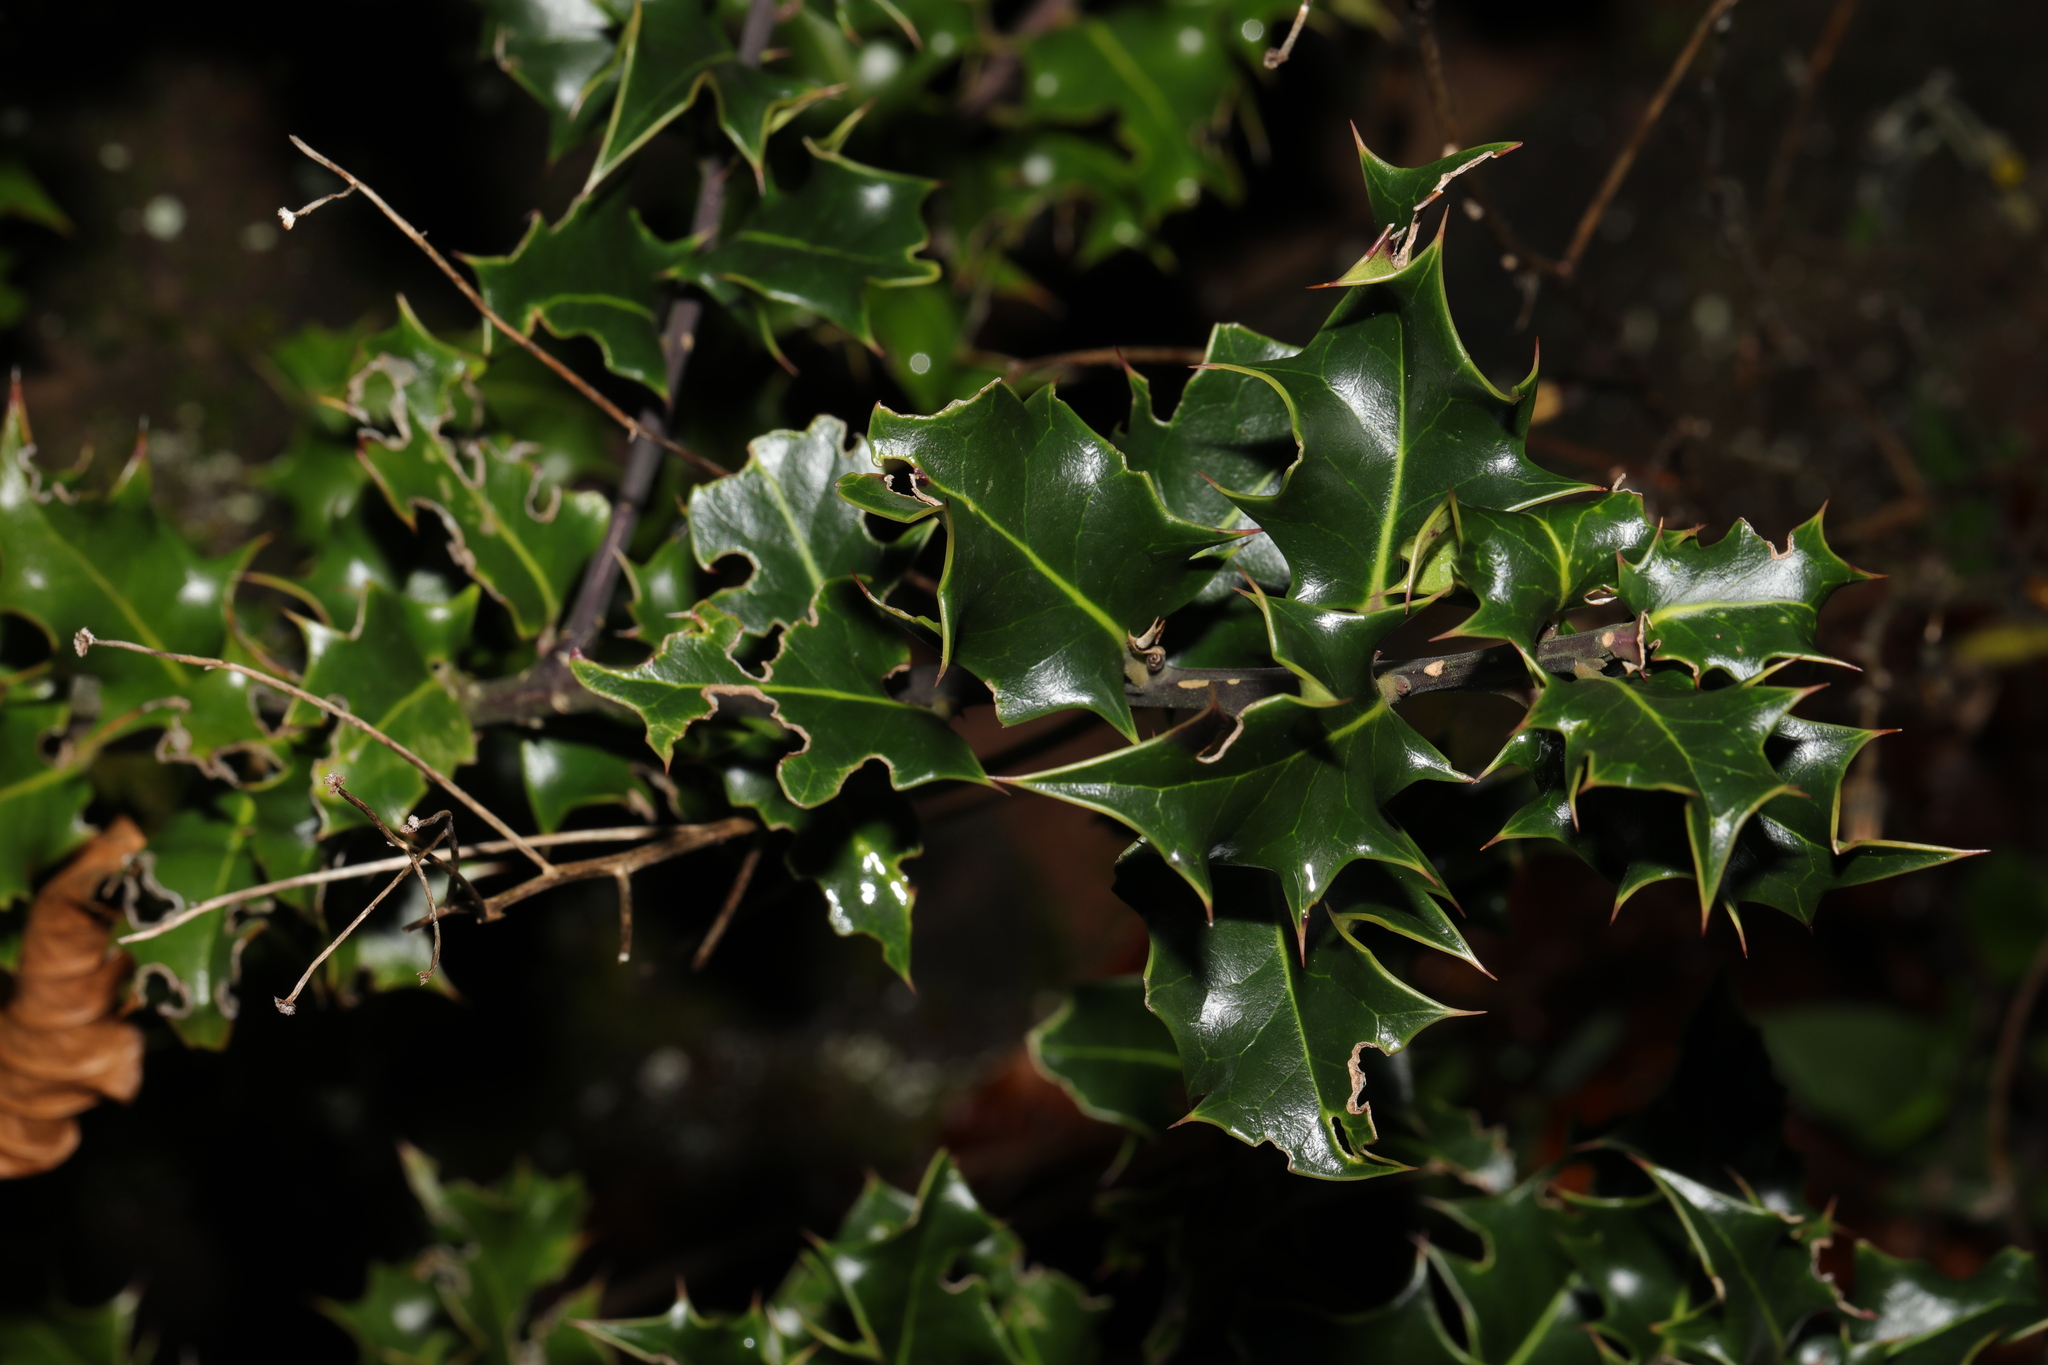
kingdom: Plantae
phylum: Tracheophyta
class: Magnoliopsida
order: Aquifoliales
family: Aquifoliaceae
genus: Ilex
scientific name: Ilex aquifolium
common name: English holly
